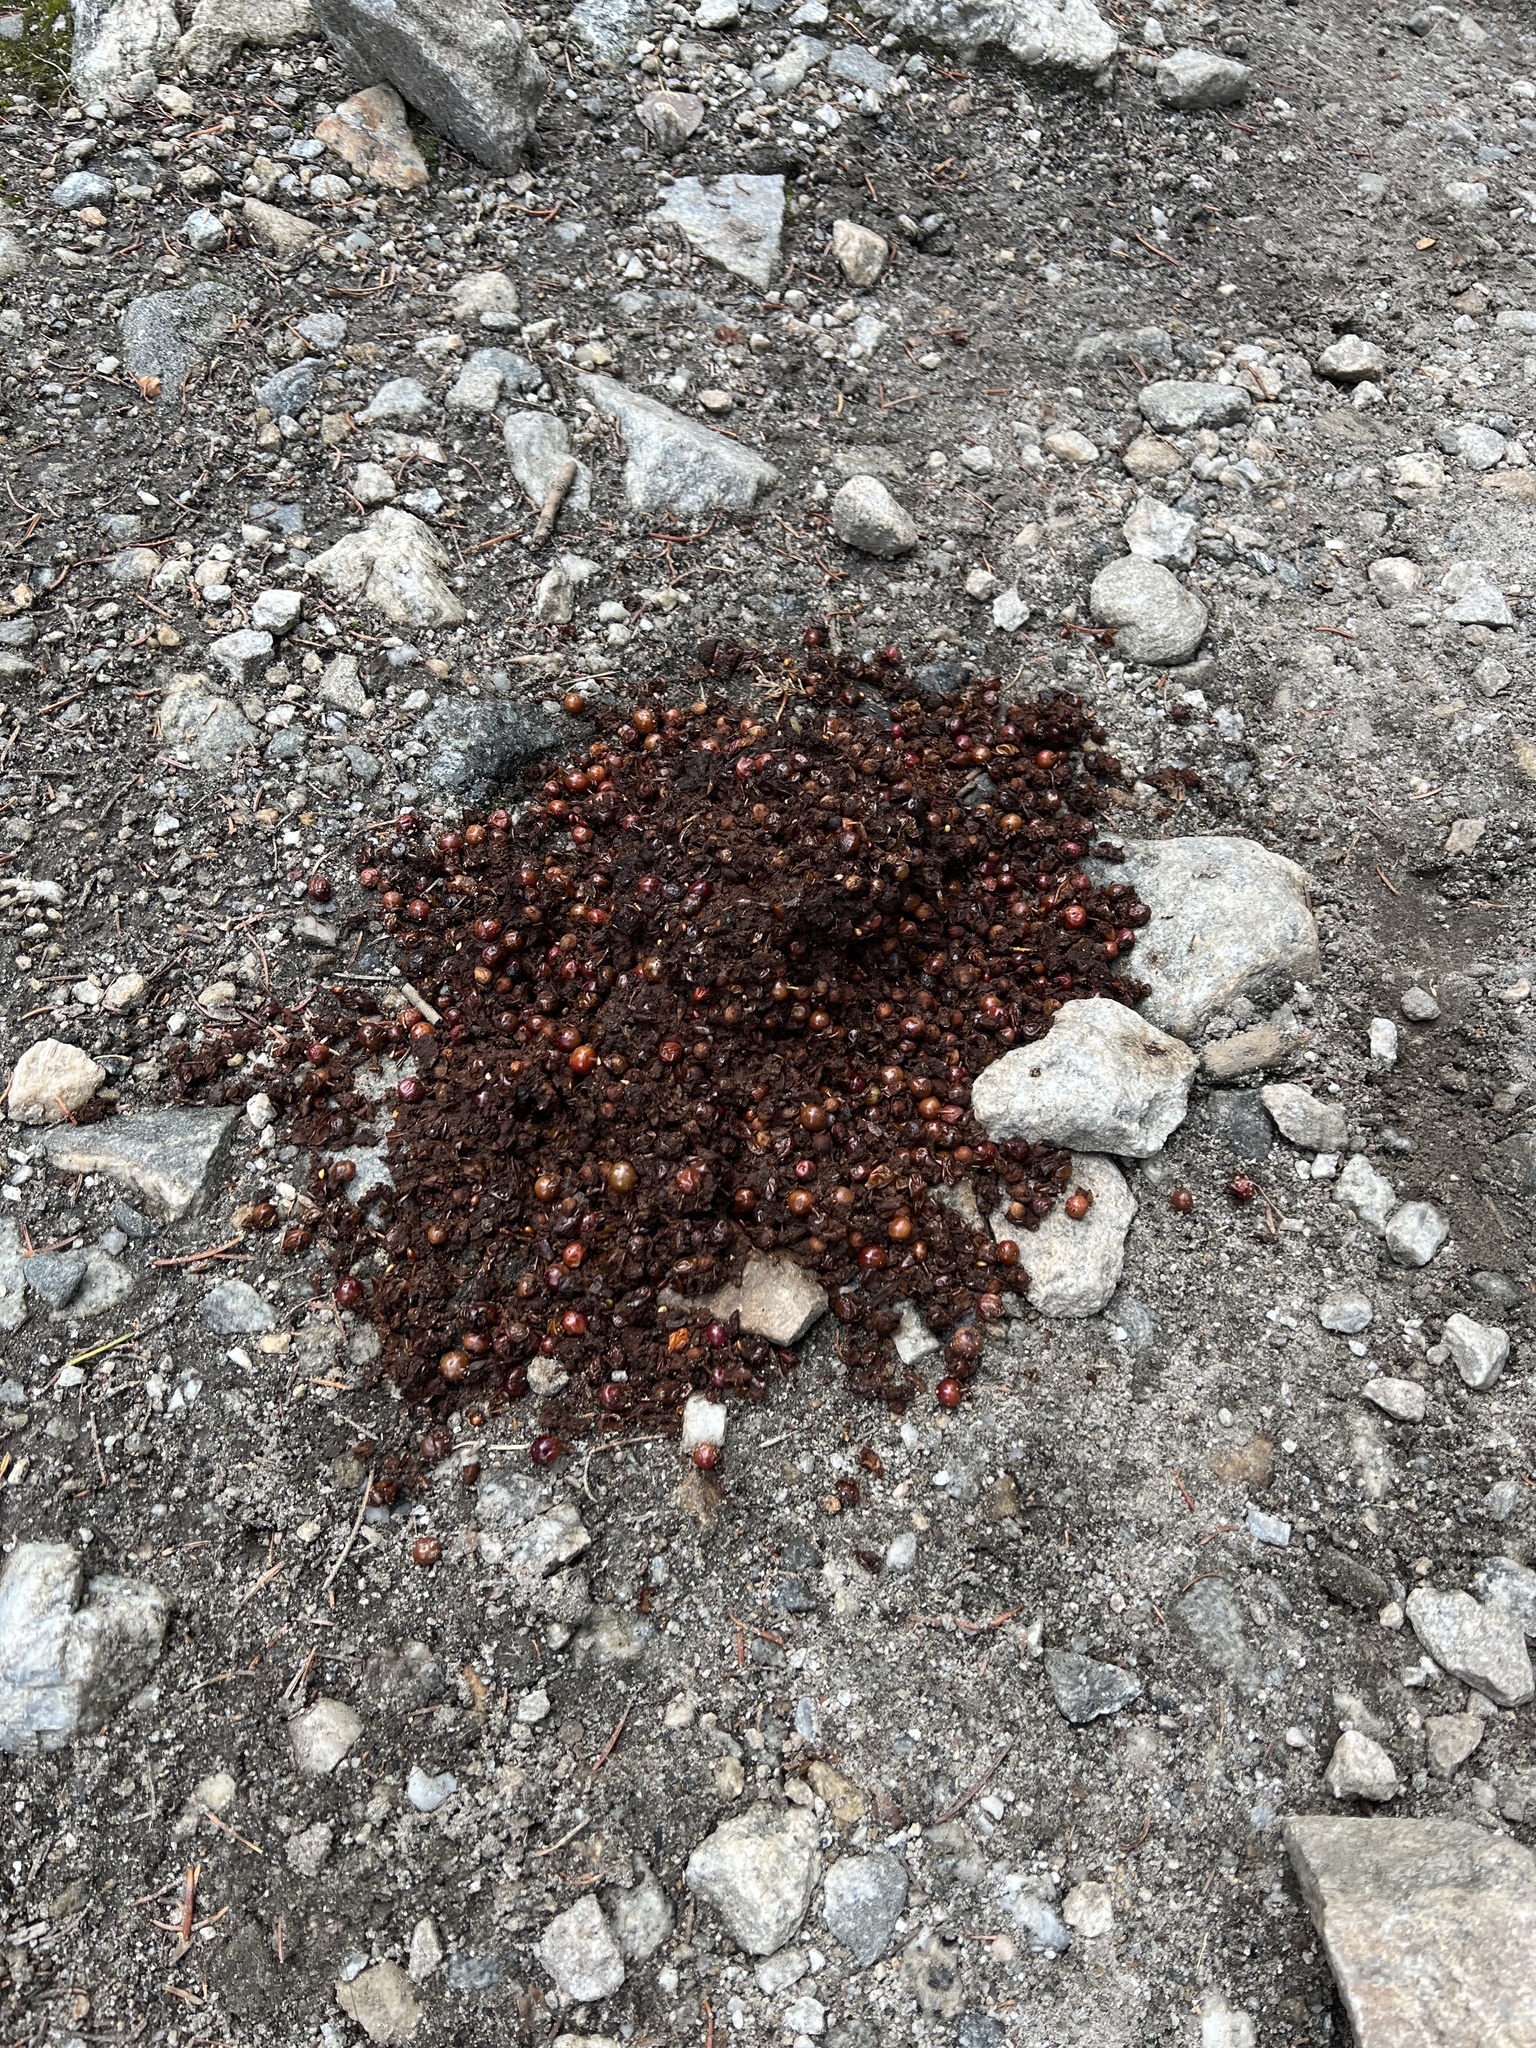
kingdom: Animalia
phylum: Chordata
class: Mammalia
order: Carnivora
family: Ursidae
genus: Ursus
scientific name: Ursus
